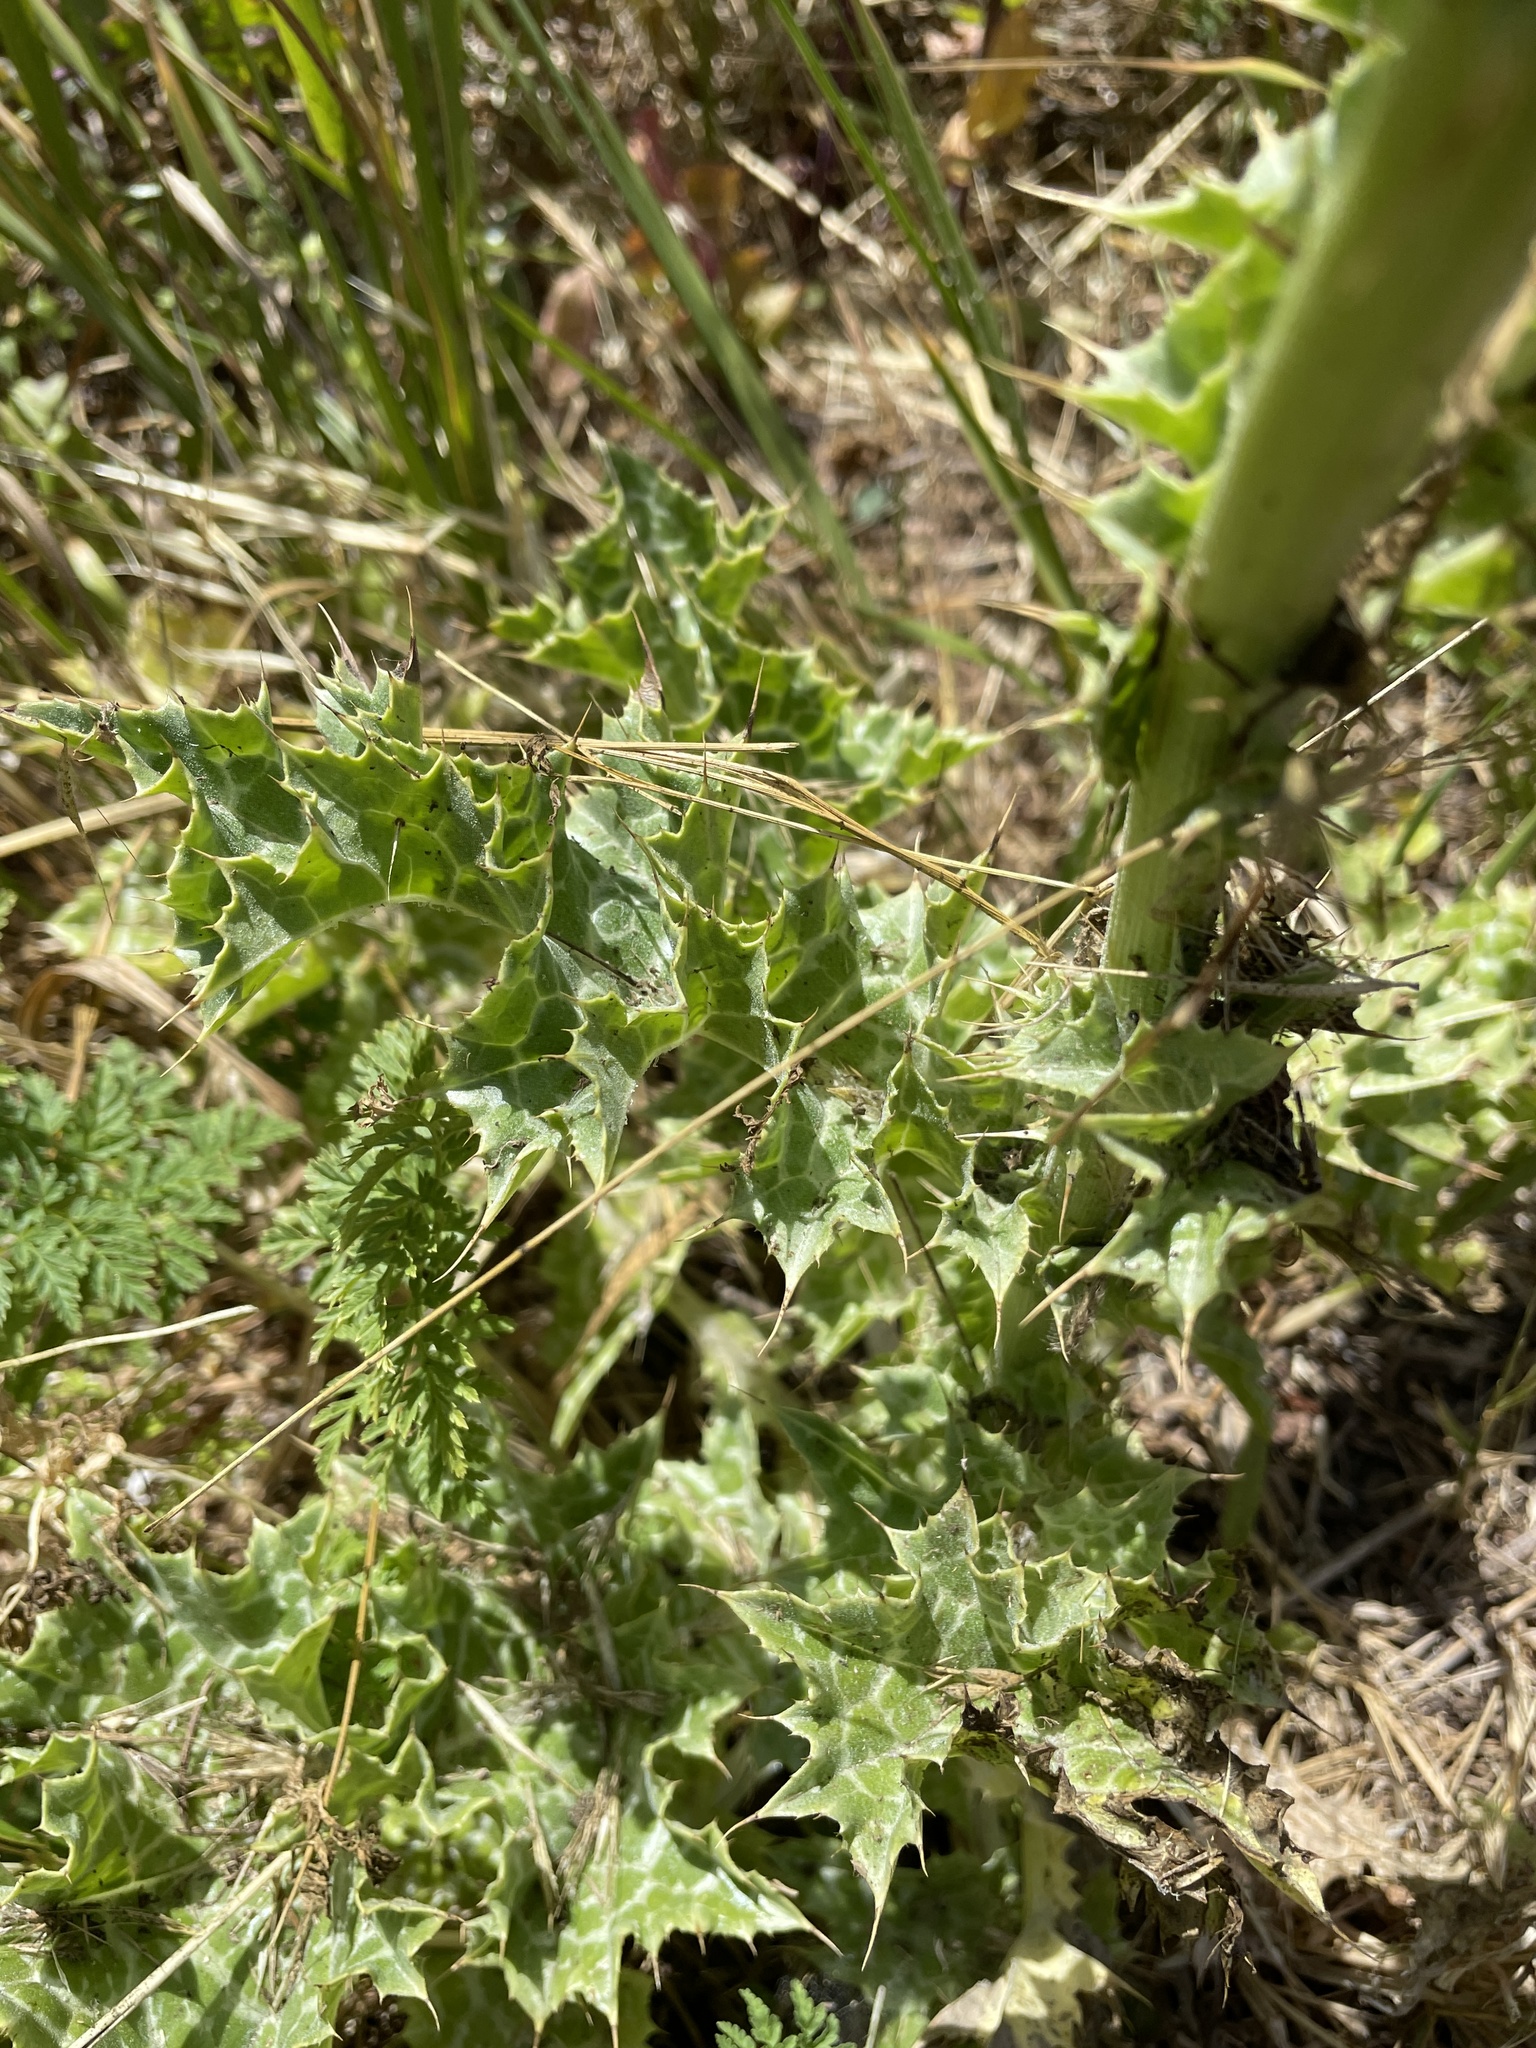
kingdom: Plantae
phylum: Tracheophyta
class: Magnoliopsida
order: Asterales
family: Asteraceae
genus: Silybum
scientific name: Silybum marianum
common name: Milk thistle
